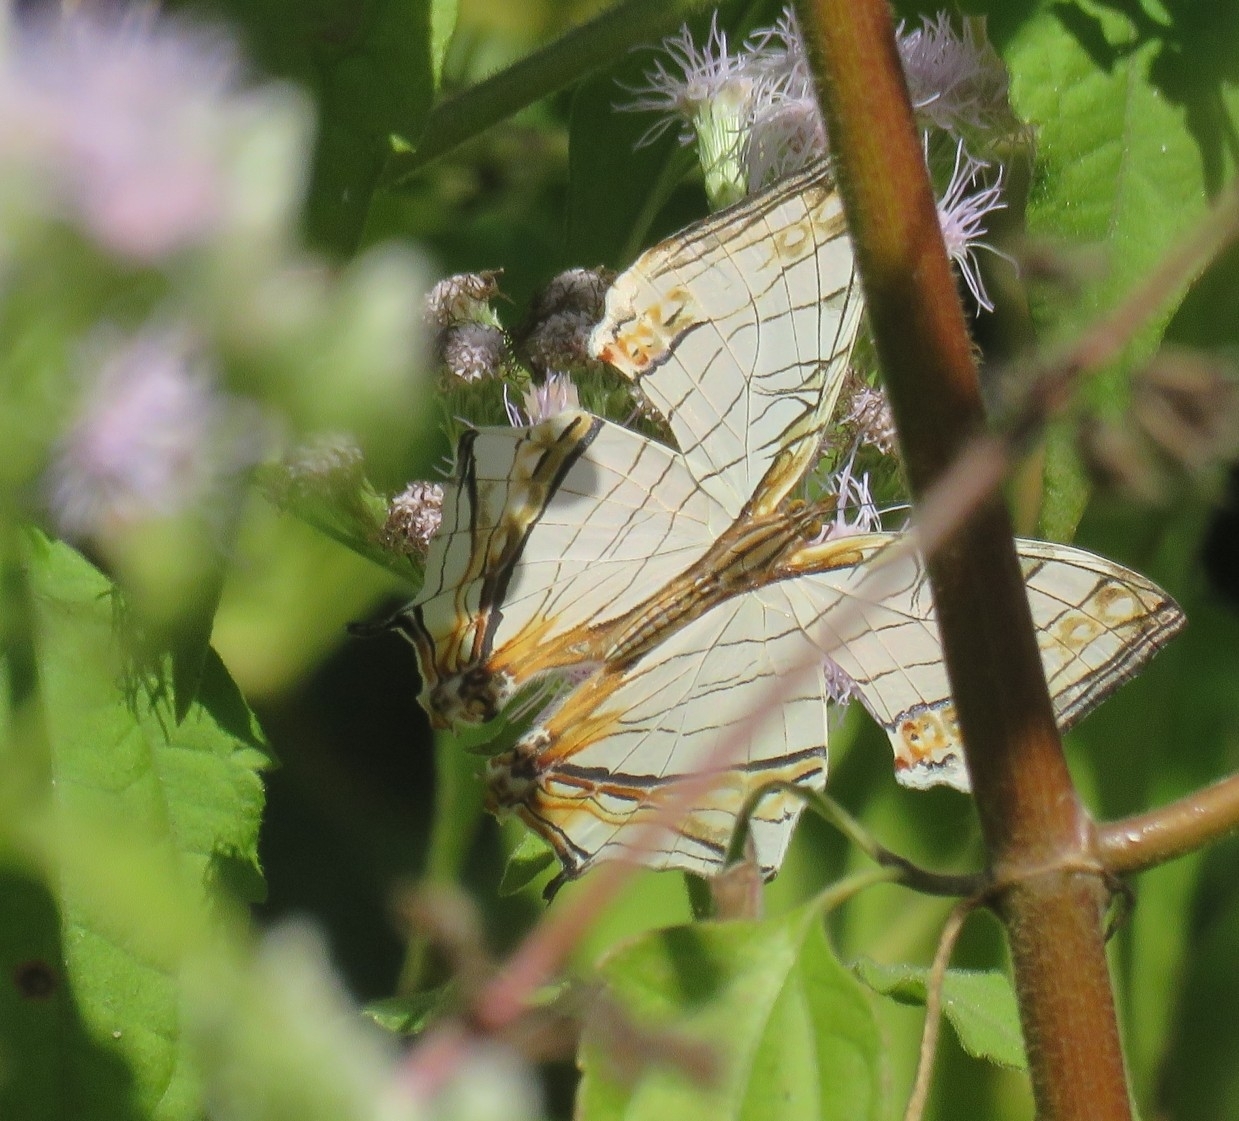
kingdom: Animalia
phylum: Arthropoda
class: Insecta
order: Lepidoptera
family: Nymphalidae
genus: Cyrestis
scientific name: Cyrestis thyodamas
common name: Common mapwing
